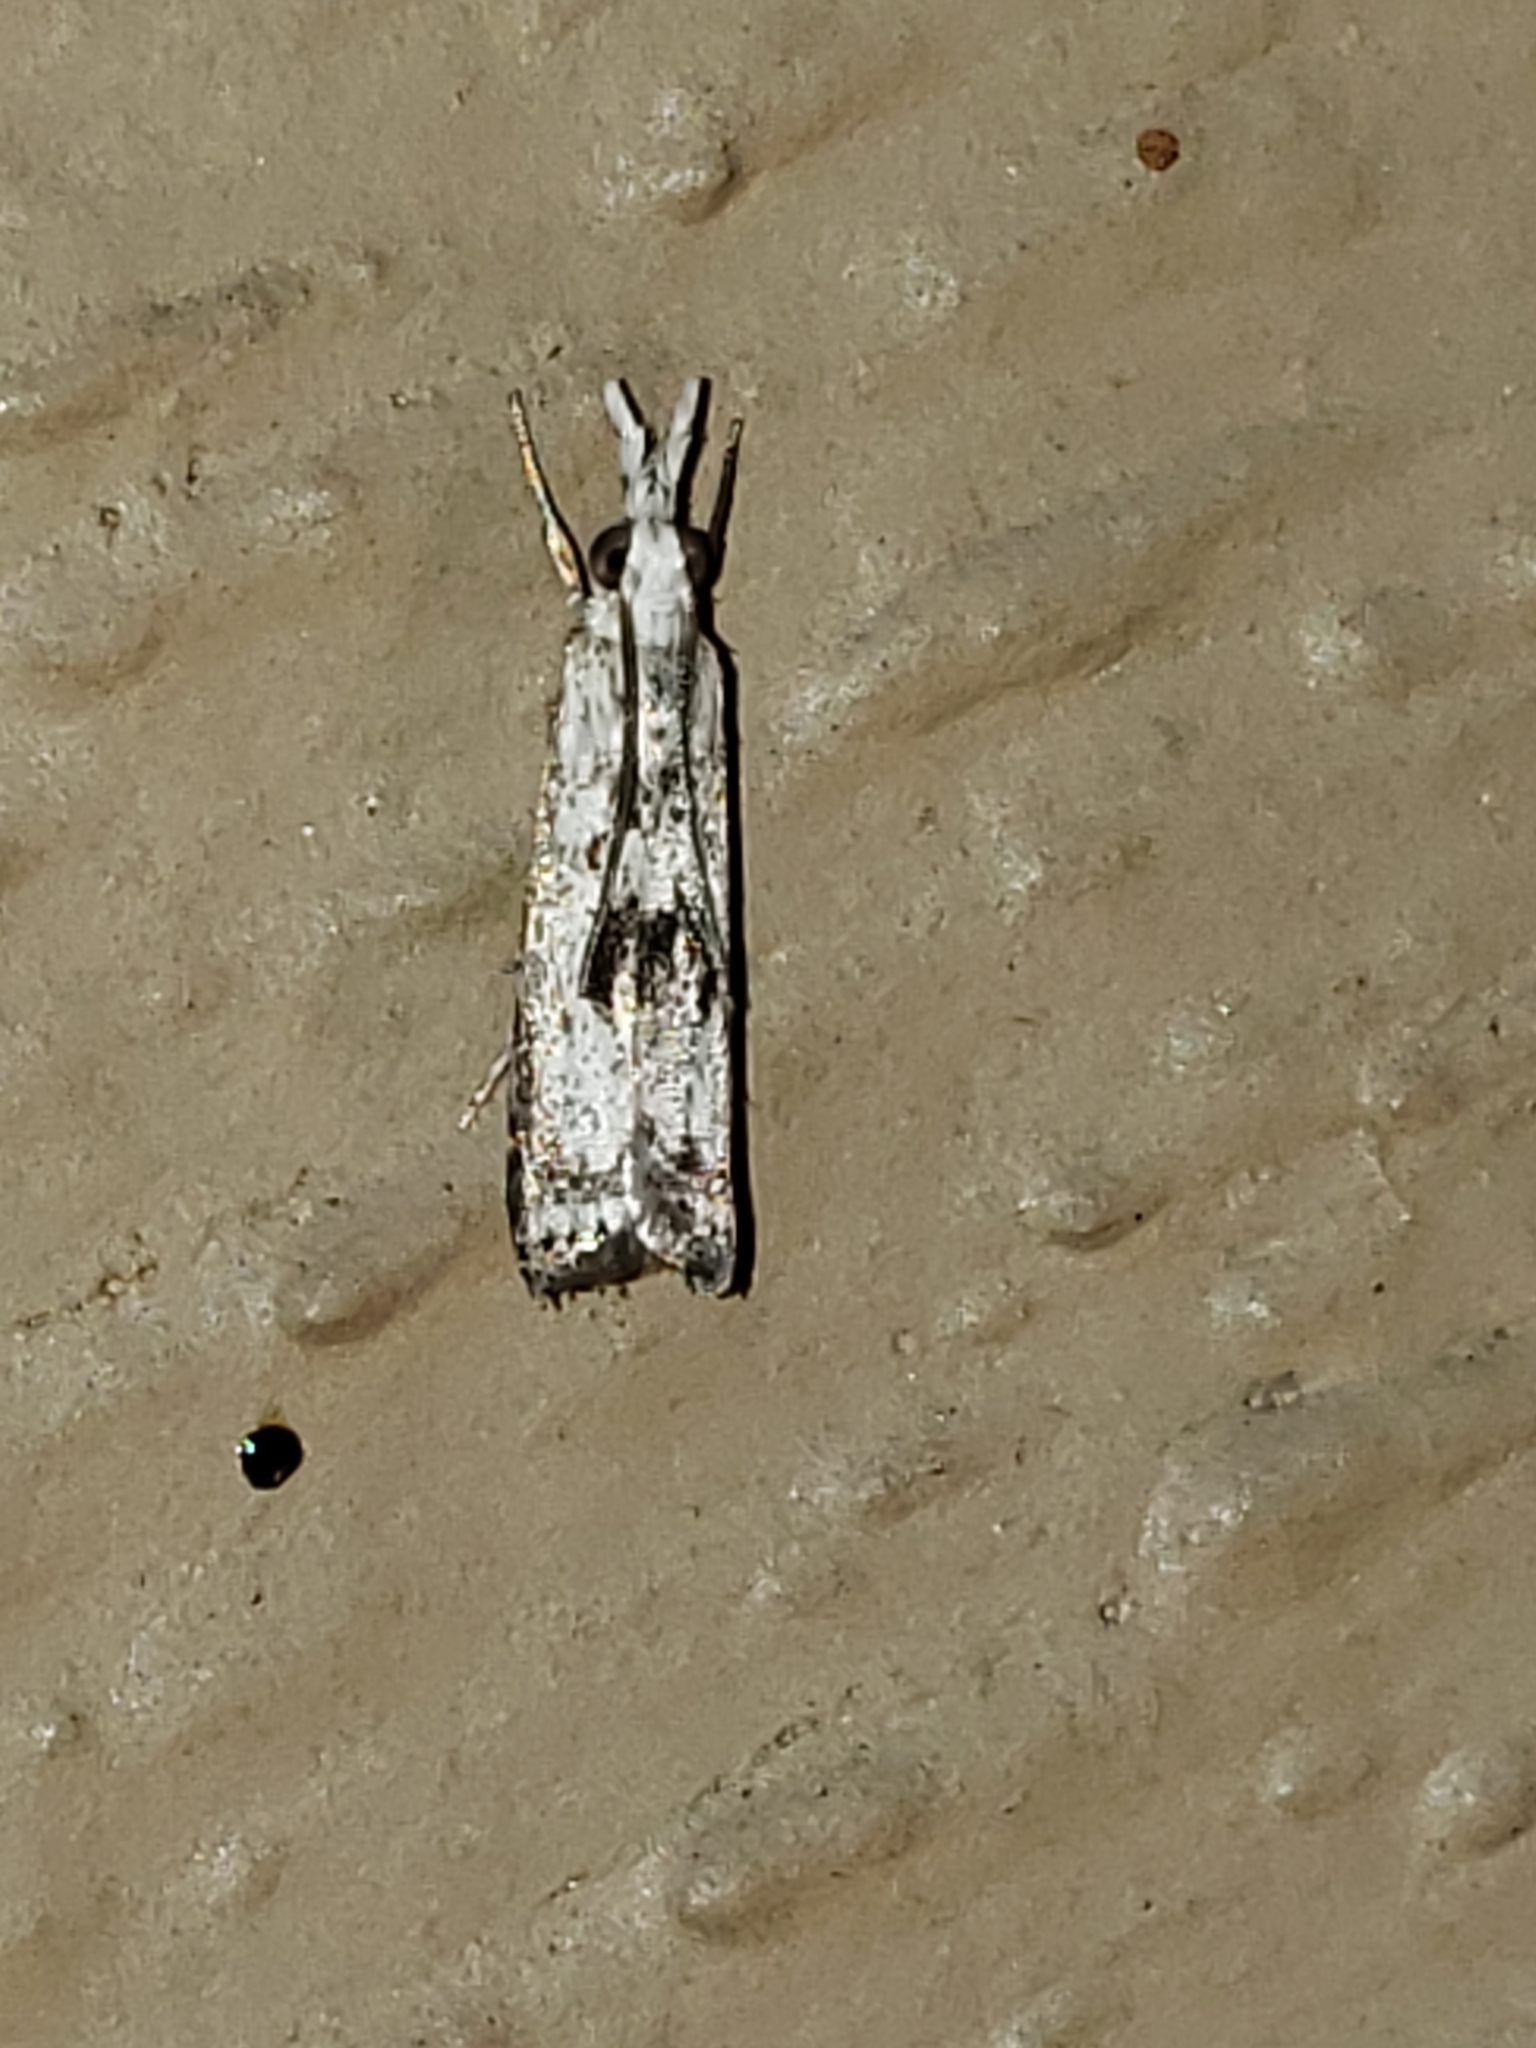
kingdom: Animalia
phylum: Arthropoda
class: Insecta
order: Lepidoptera
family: Crambidae
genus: Microcrambus
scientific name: Microcrambus elegans
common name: Elegant grass-veneer
